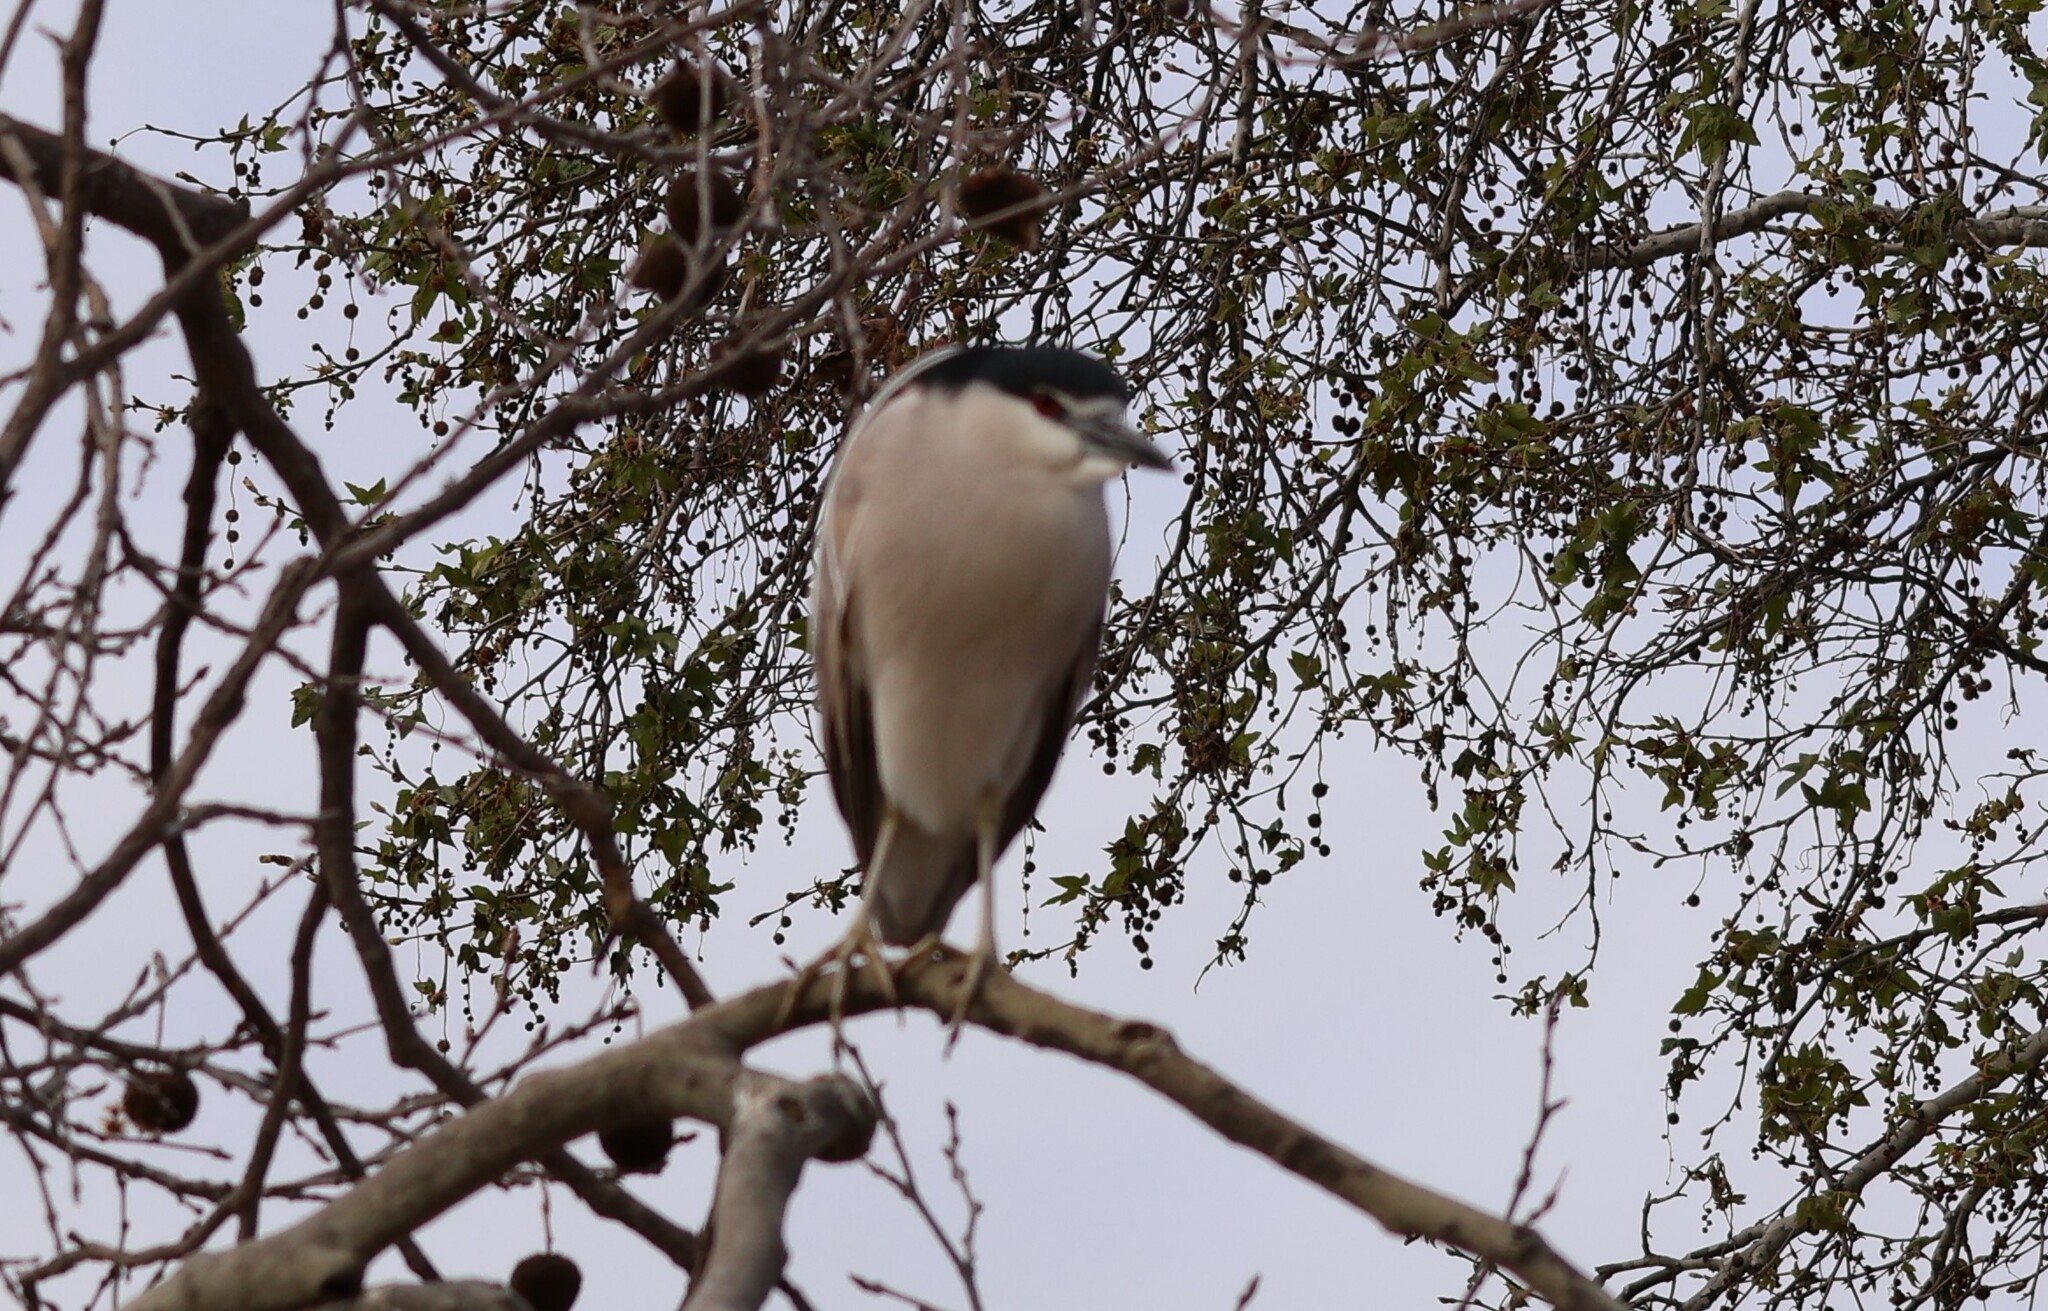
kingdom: Animalia
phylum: Chordata
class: Aves
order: Pelecaniformes
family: Ardeidae
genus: Nycticorax
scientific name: Nycticorax nycticorax
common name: Black-crowned night heron
